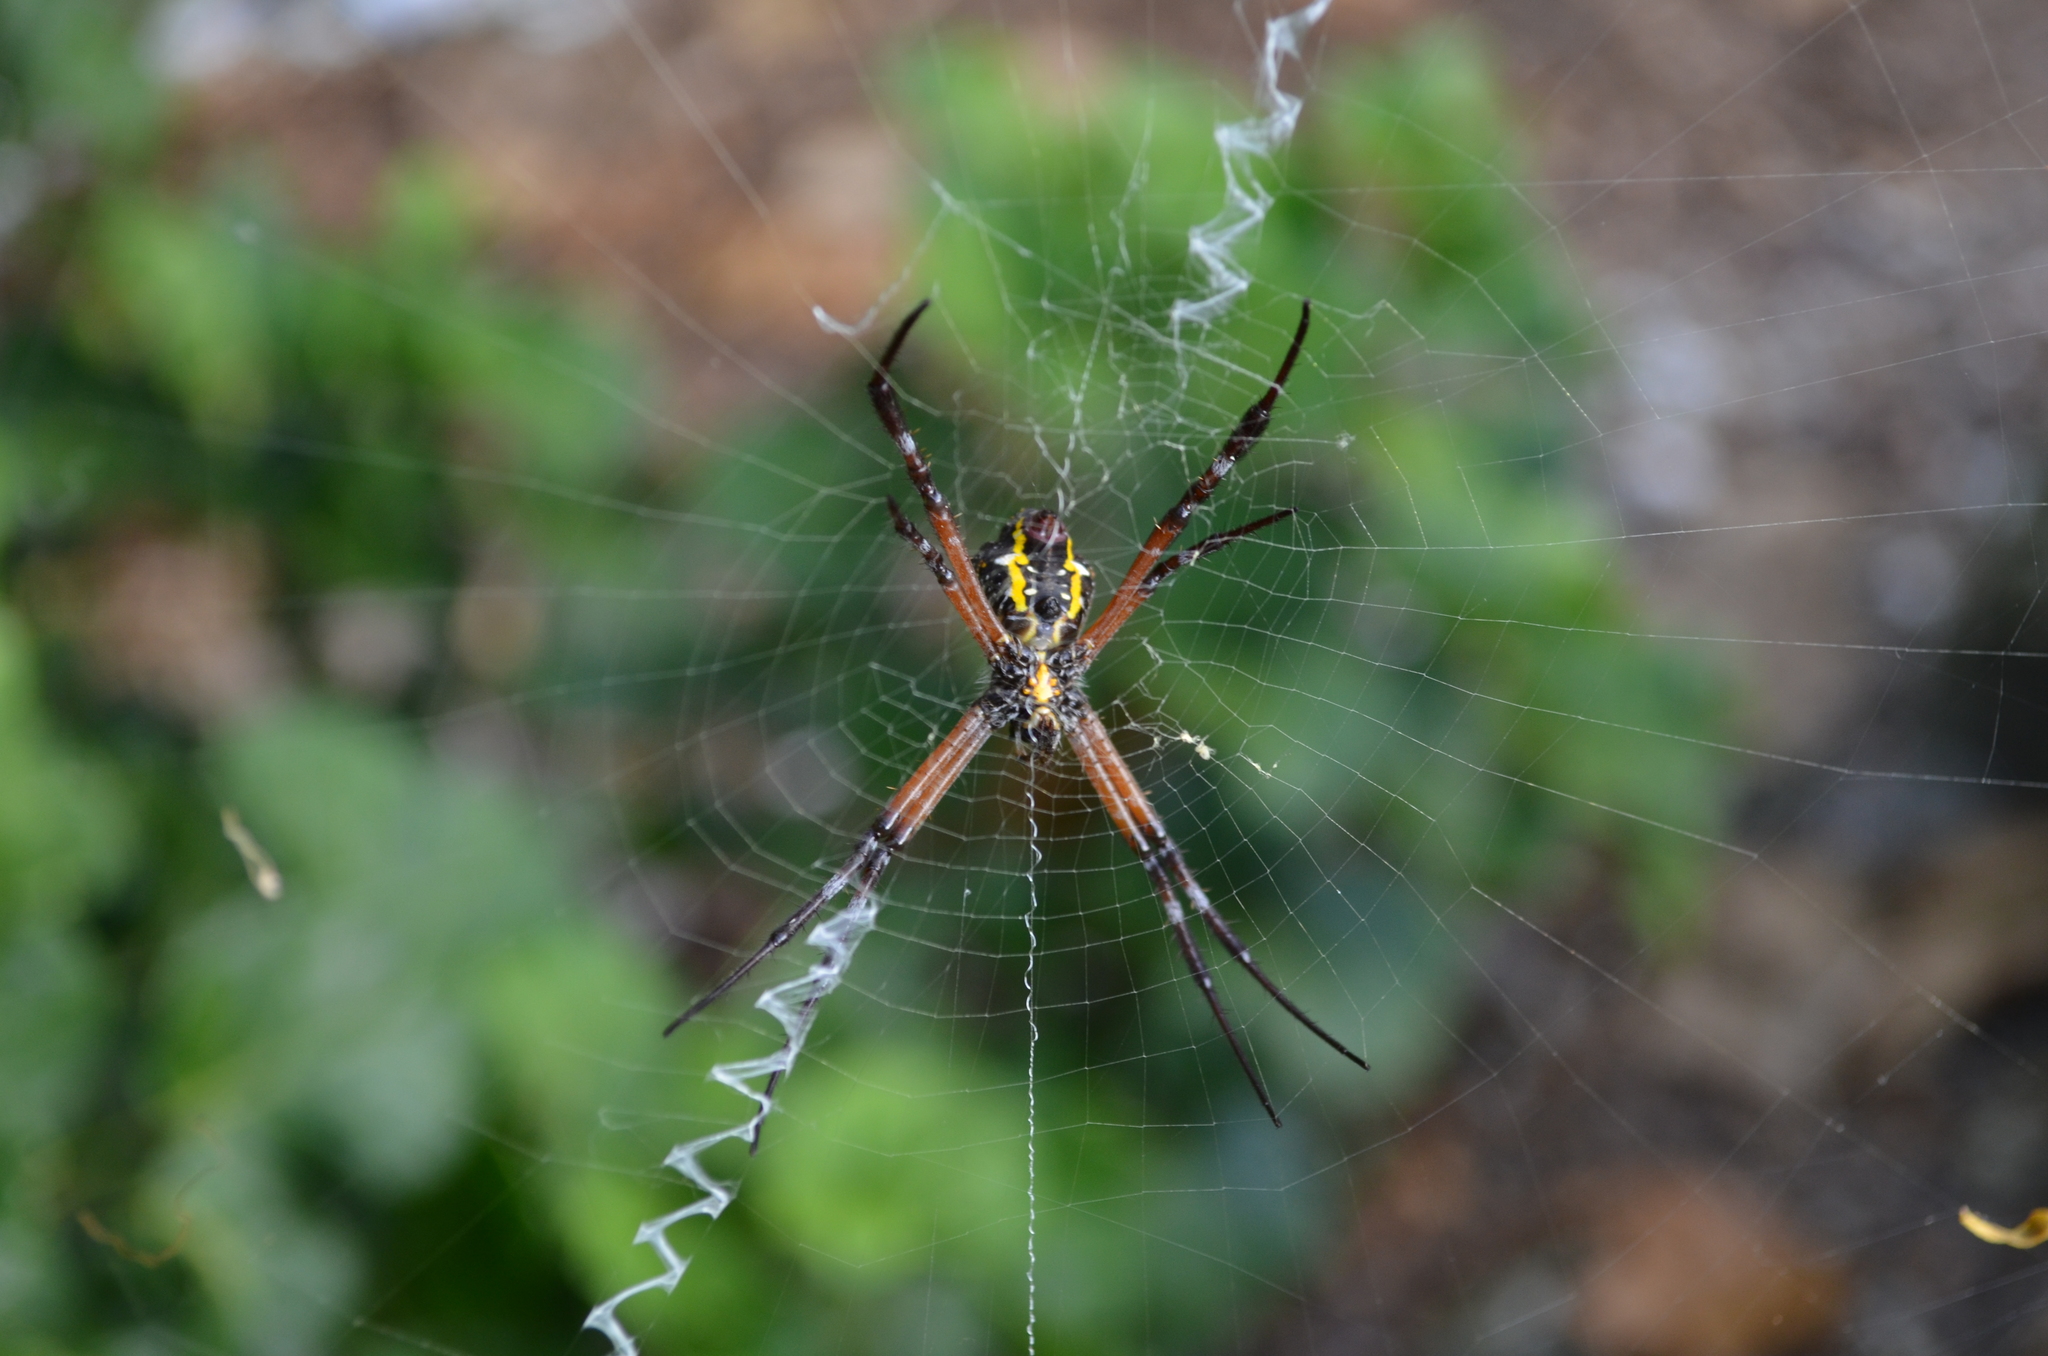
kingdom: Animalia
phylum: Arthropoda
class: Arachnida
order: Araneae
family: Araneidae
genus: Argiope
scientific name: Argiope appensa
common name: Garden spider
